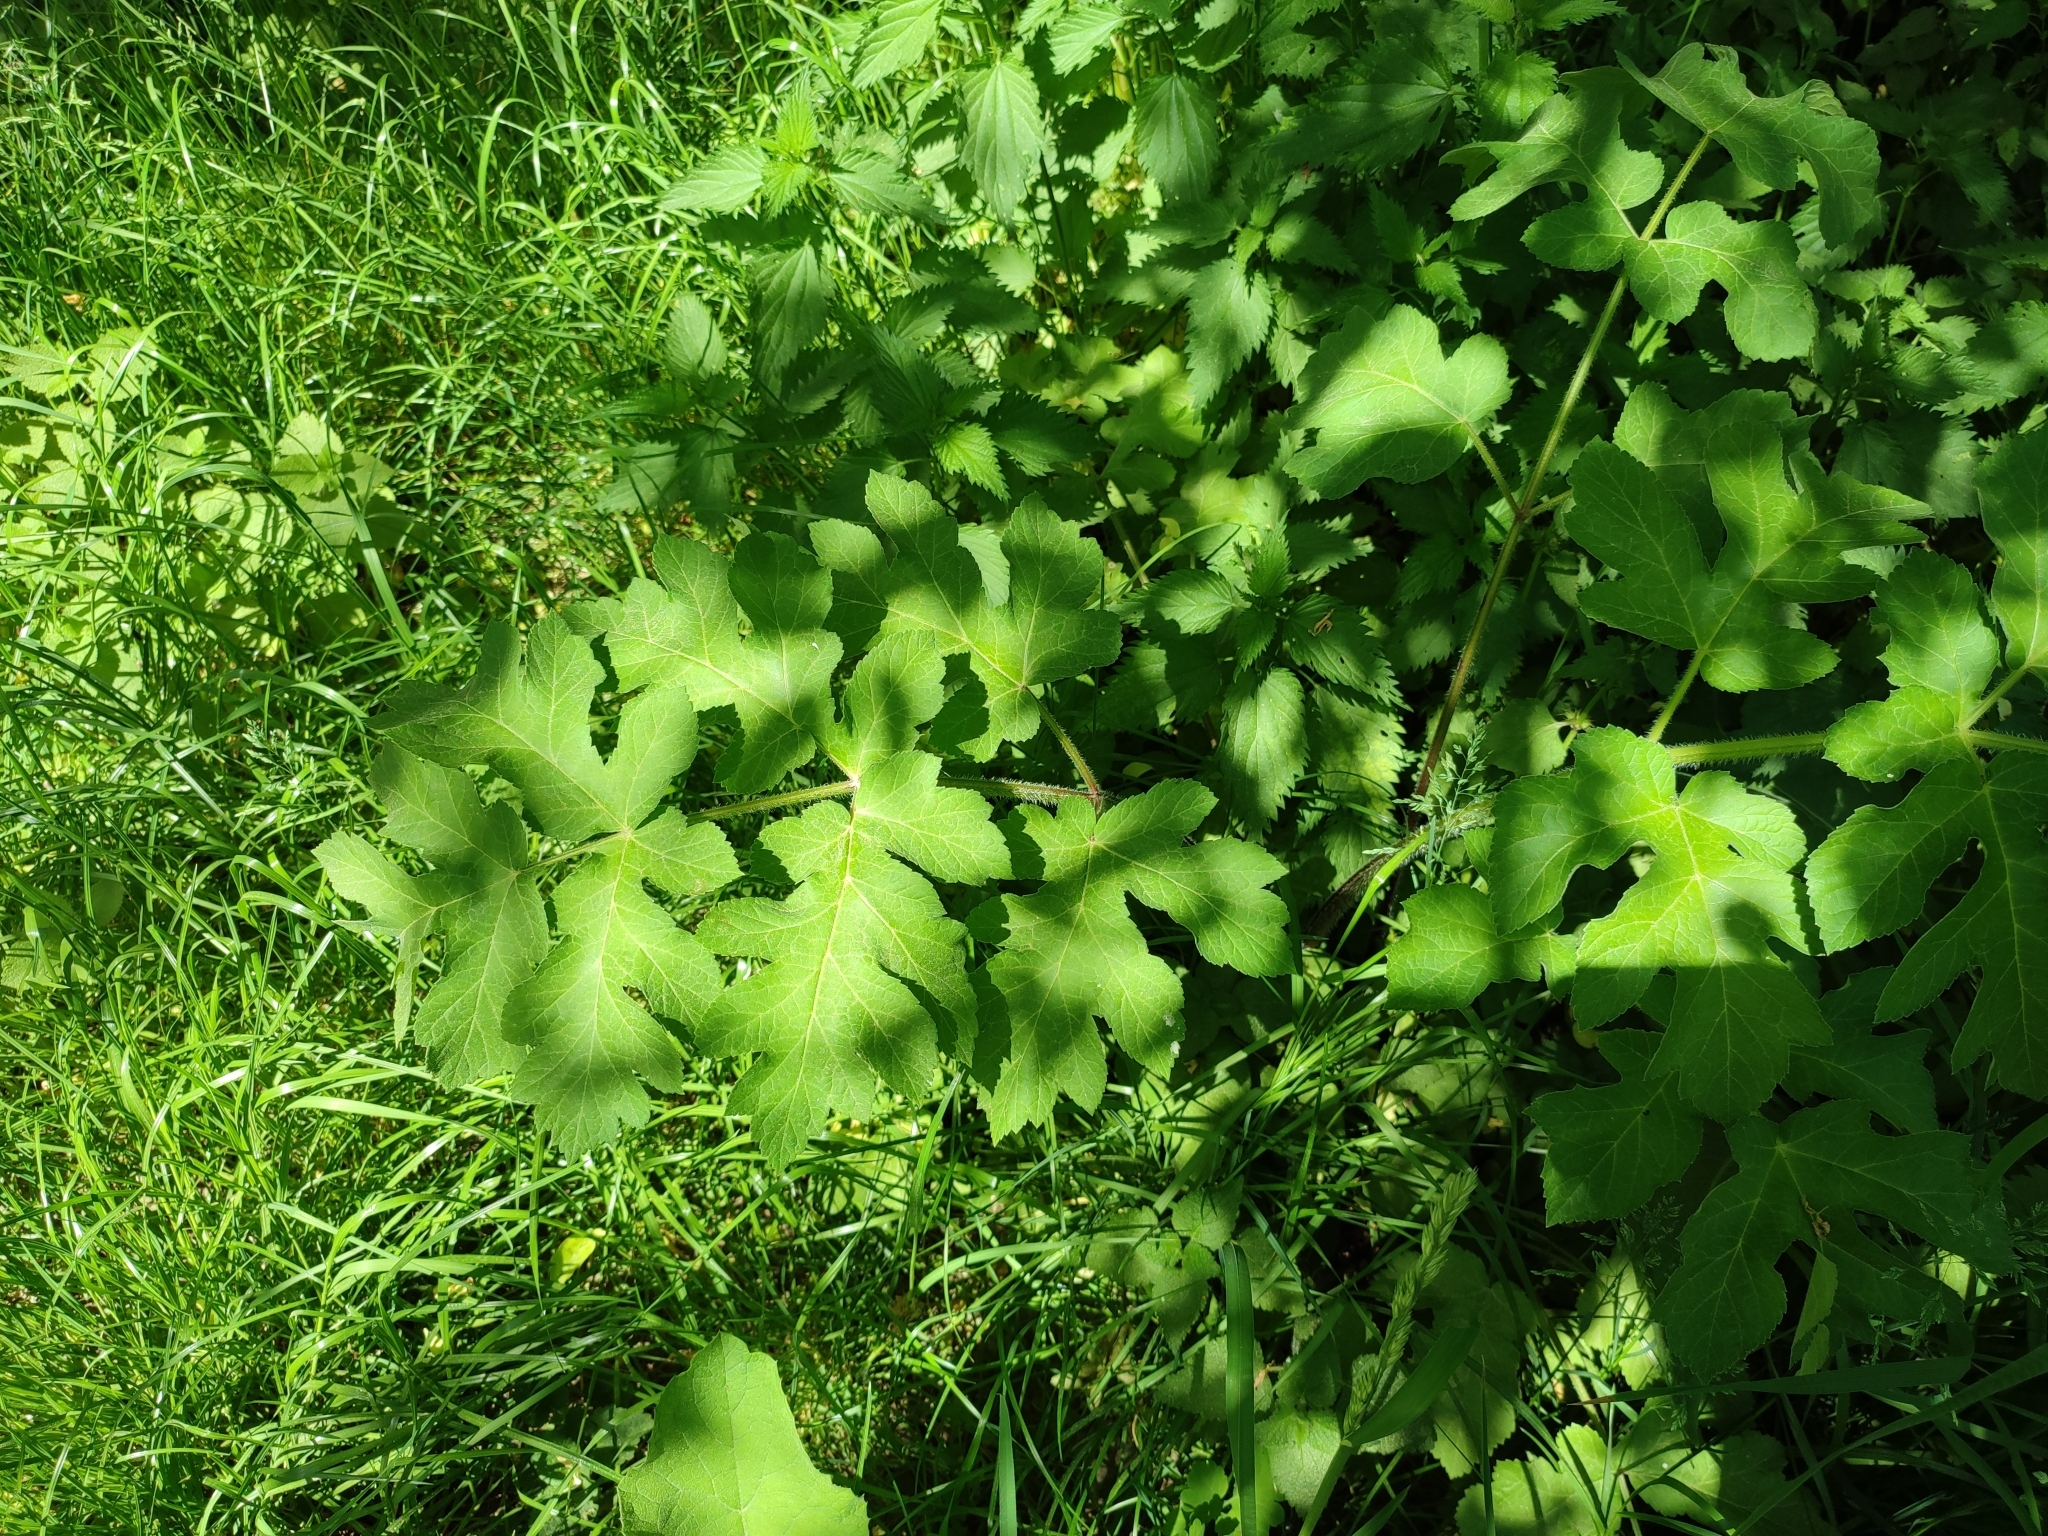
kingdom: Plantae
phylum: Tracheophyta
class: Magnoliopsida
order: Apiales
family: Apiaceae
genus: Heracleum
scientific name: Heracleum sphondylium
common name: Hogweed
